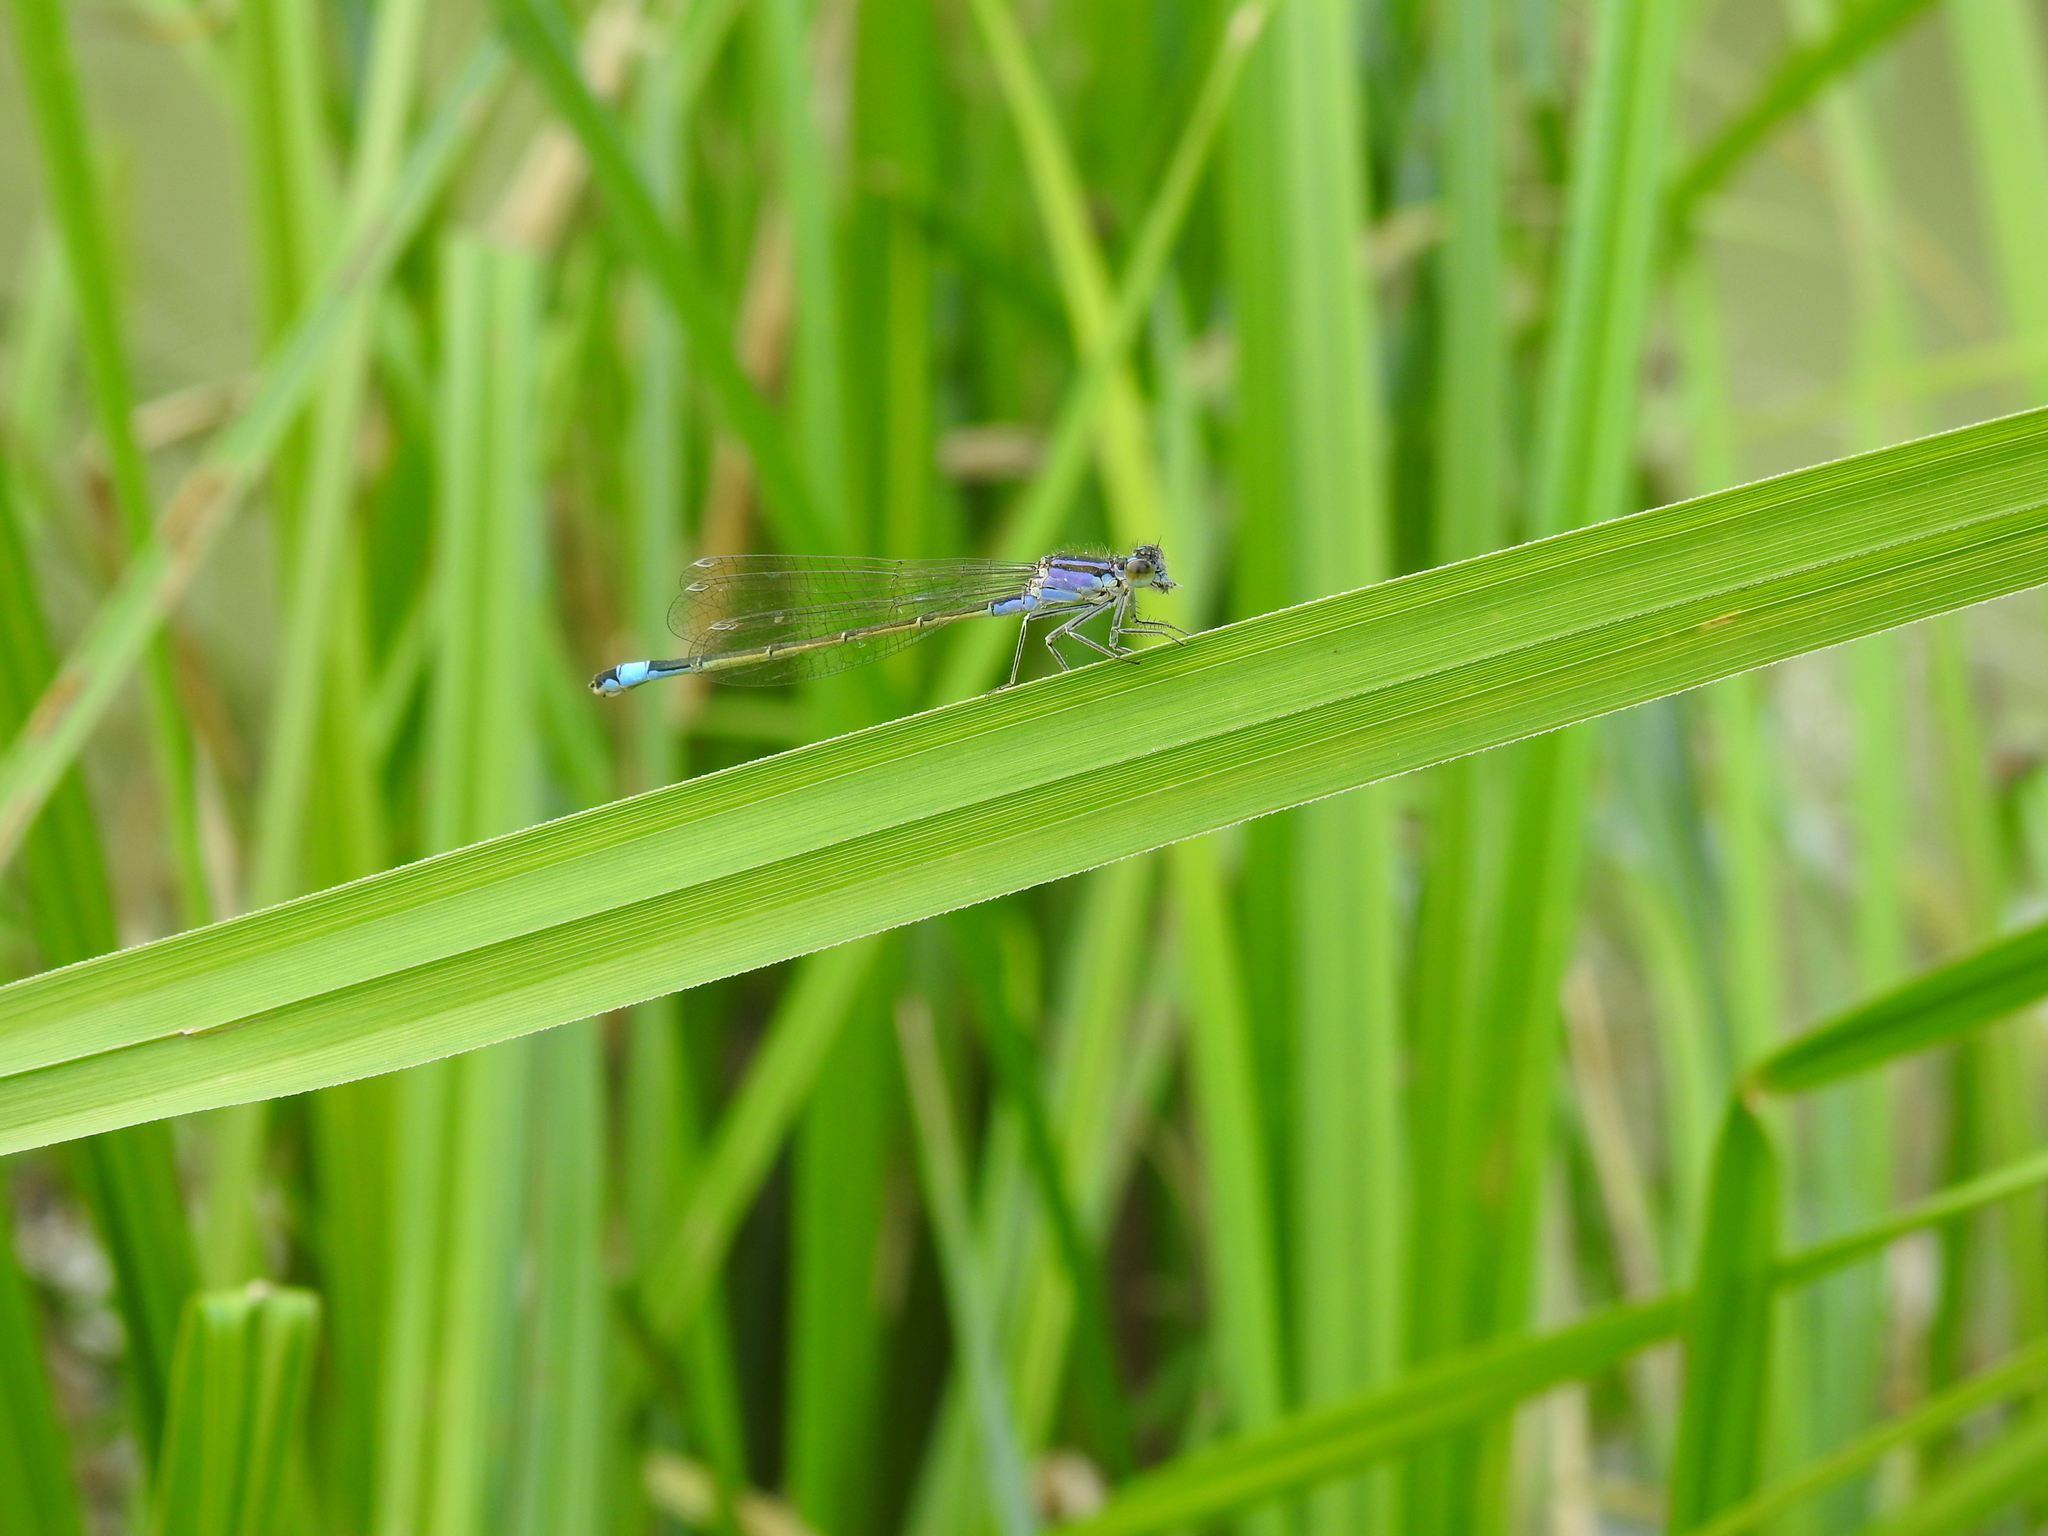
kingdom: Animalia
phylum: Arthropoda
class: Insecta
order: Odonata
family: Coenagrionidae
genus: Ischnura
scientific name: Ischnura elegans
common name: Blue-tailed damselfly
